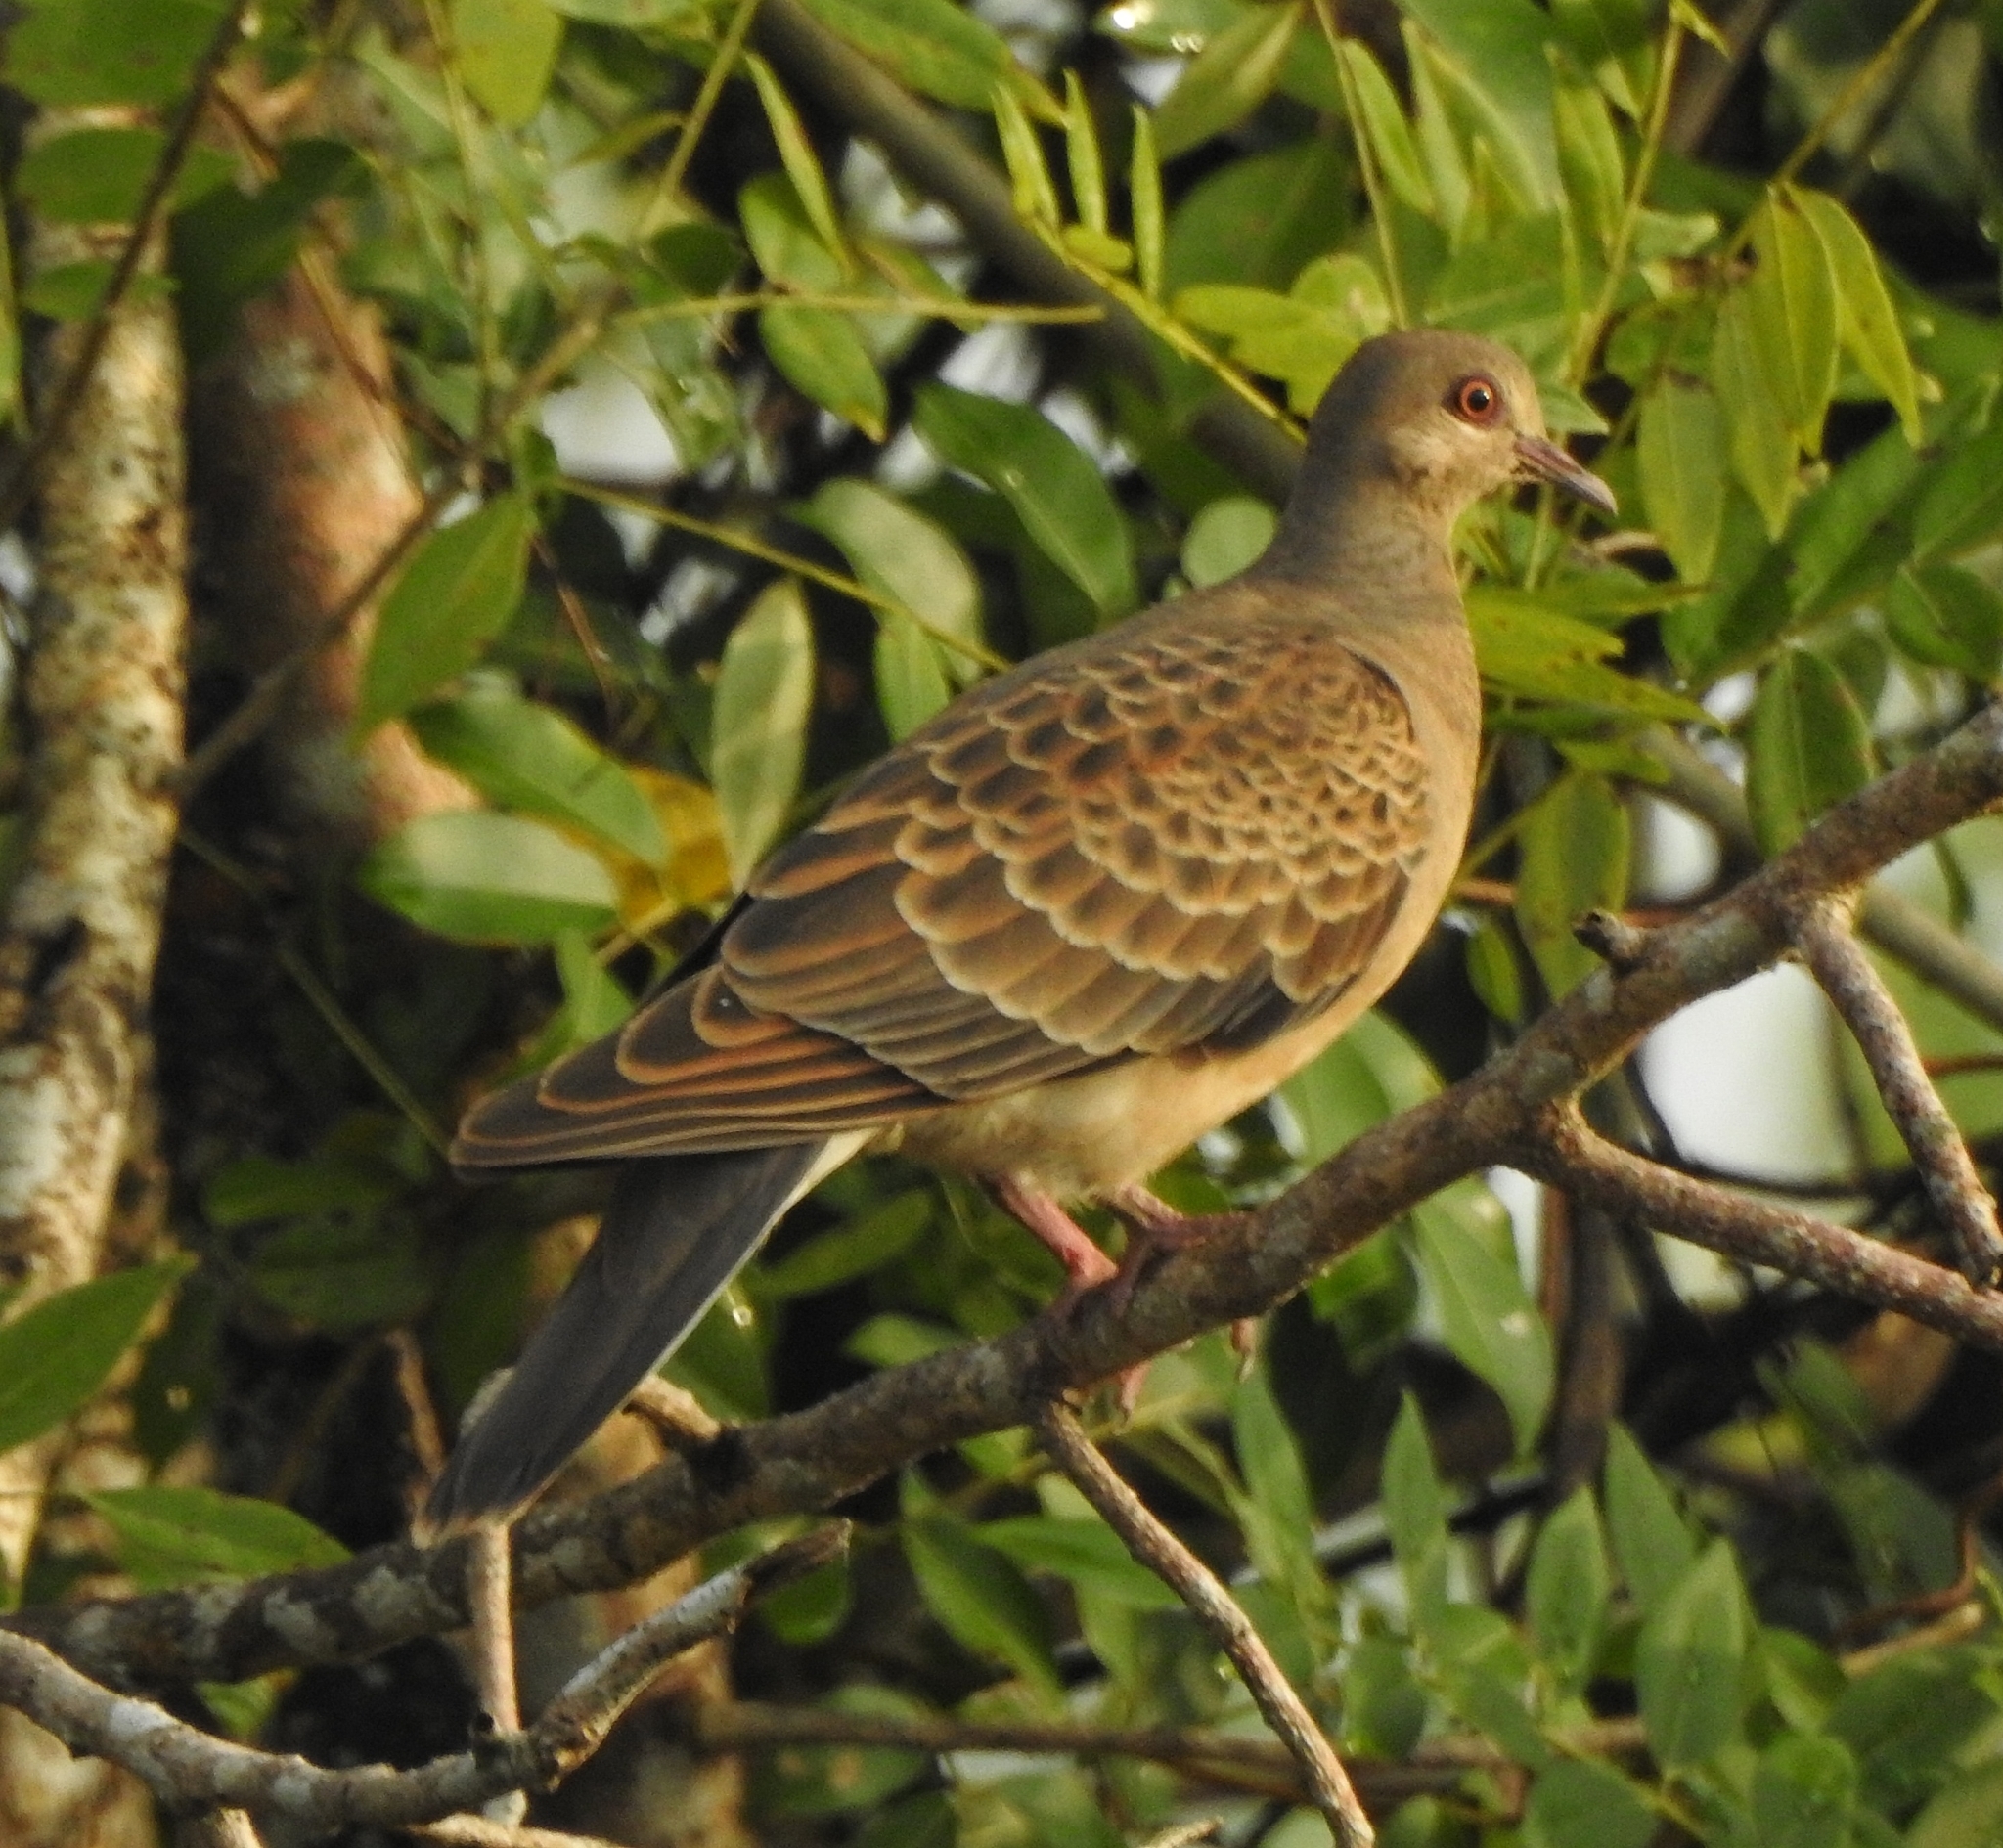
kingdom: Animalia
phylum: Chordata
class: Aves
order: Columbiformes
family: Columbidae
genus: Streptopelia
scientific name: Streptopelia orientalis
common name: Oriental turtle dove
